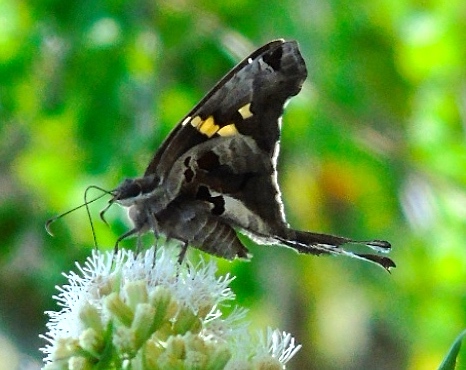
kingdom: Animalia
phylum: Arthropoda
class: Insecta
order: Lepidoptera
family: Hesperiidae
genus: Chioides
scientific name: Chioides zilpa
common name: Zilpa longtail
